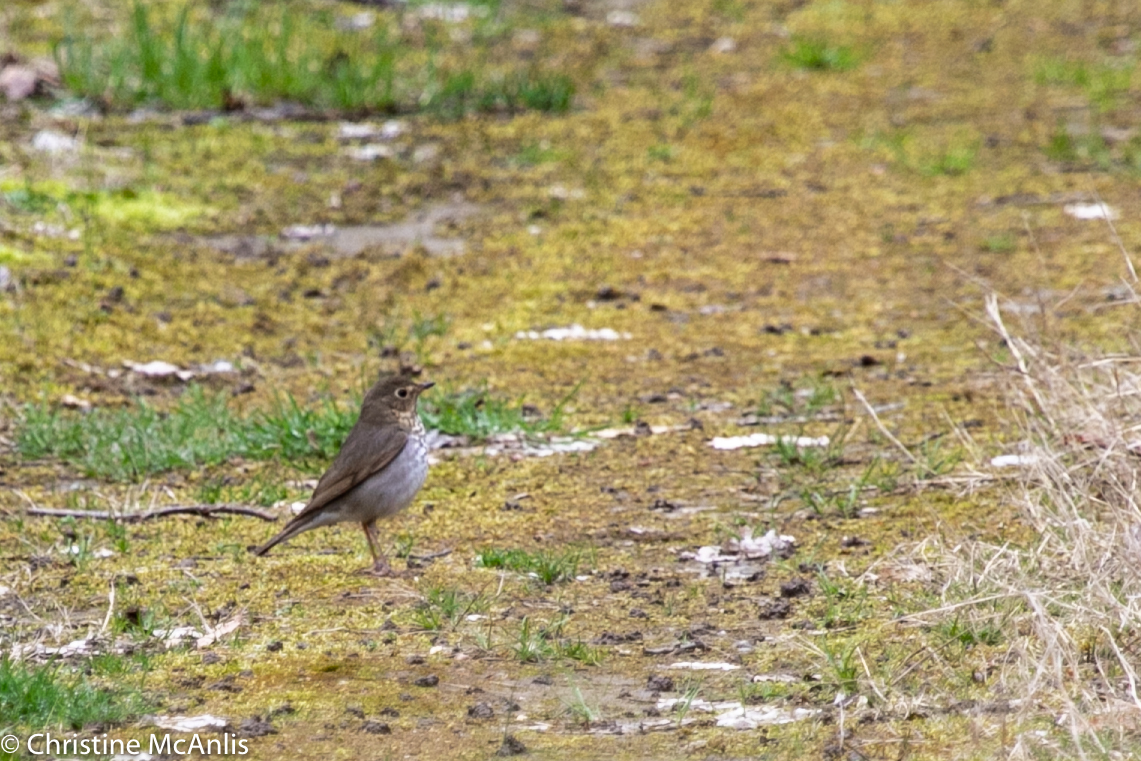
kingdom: Animalia
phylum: Chordata
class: Aves
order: Passeriformes
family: Turdidae
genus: Catharus
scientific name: Catharus ustulatus
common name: Swainson's thrush
